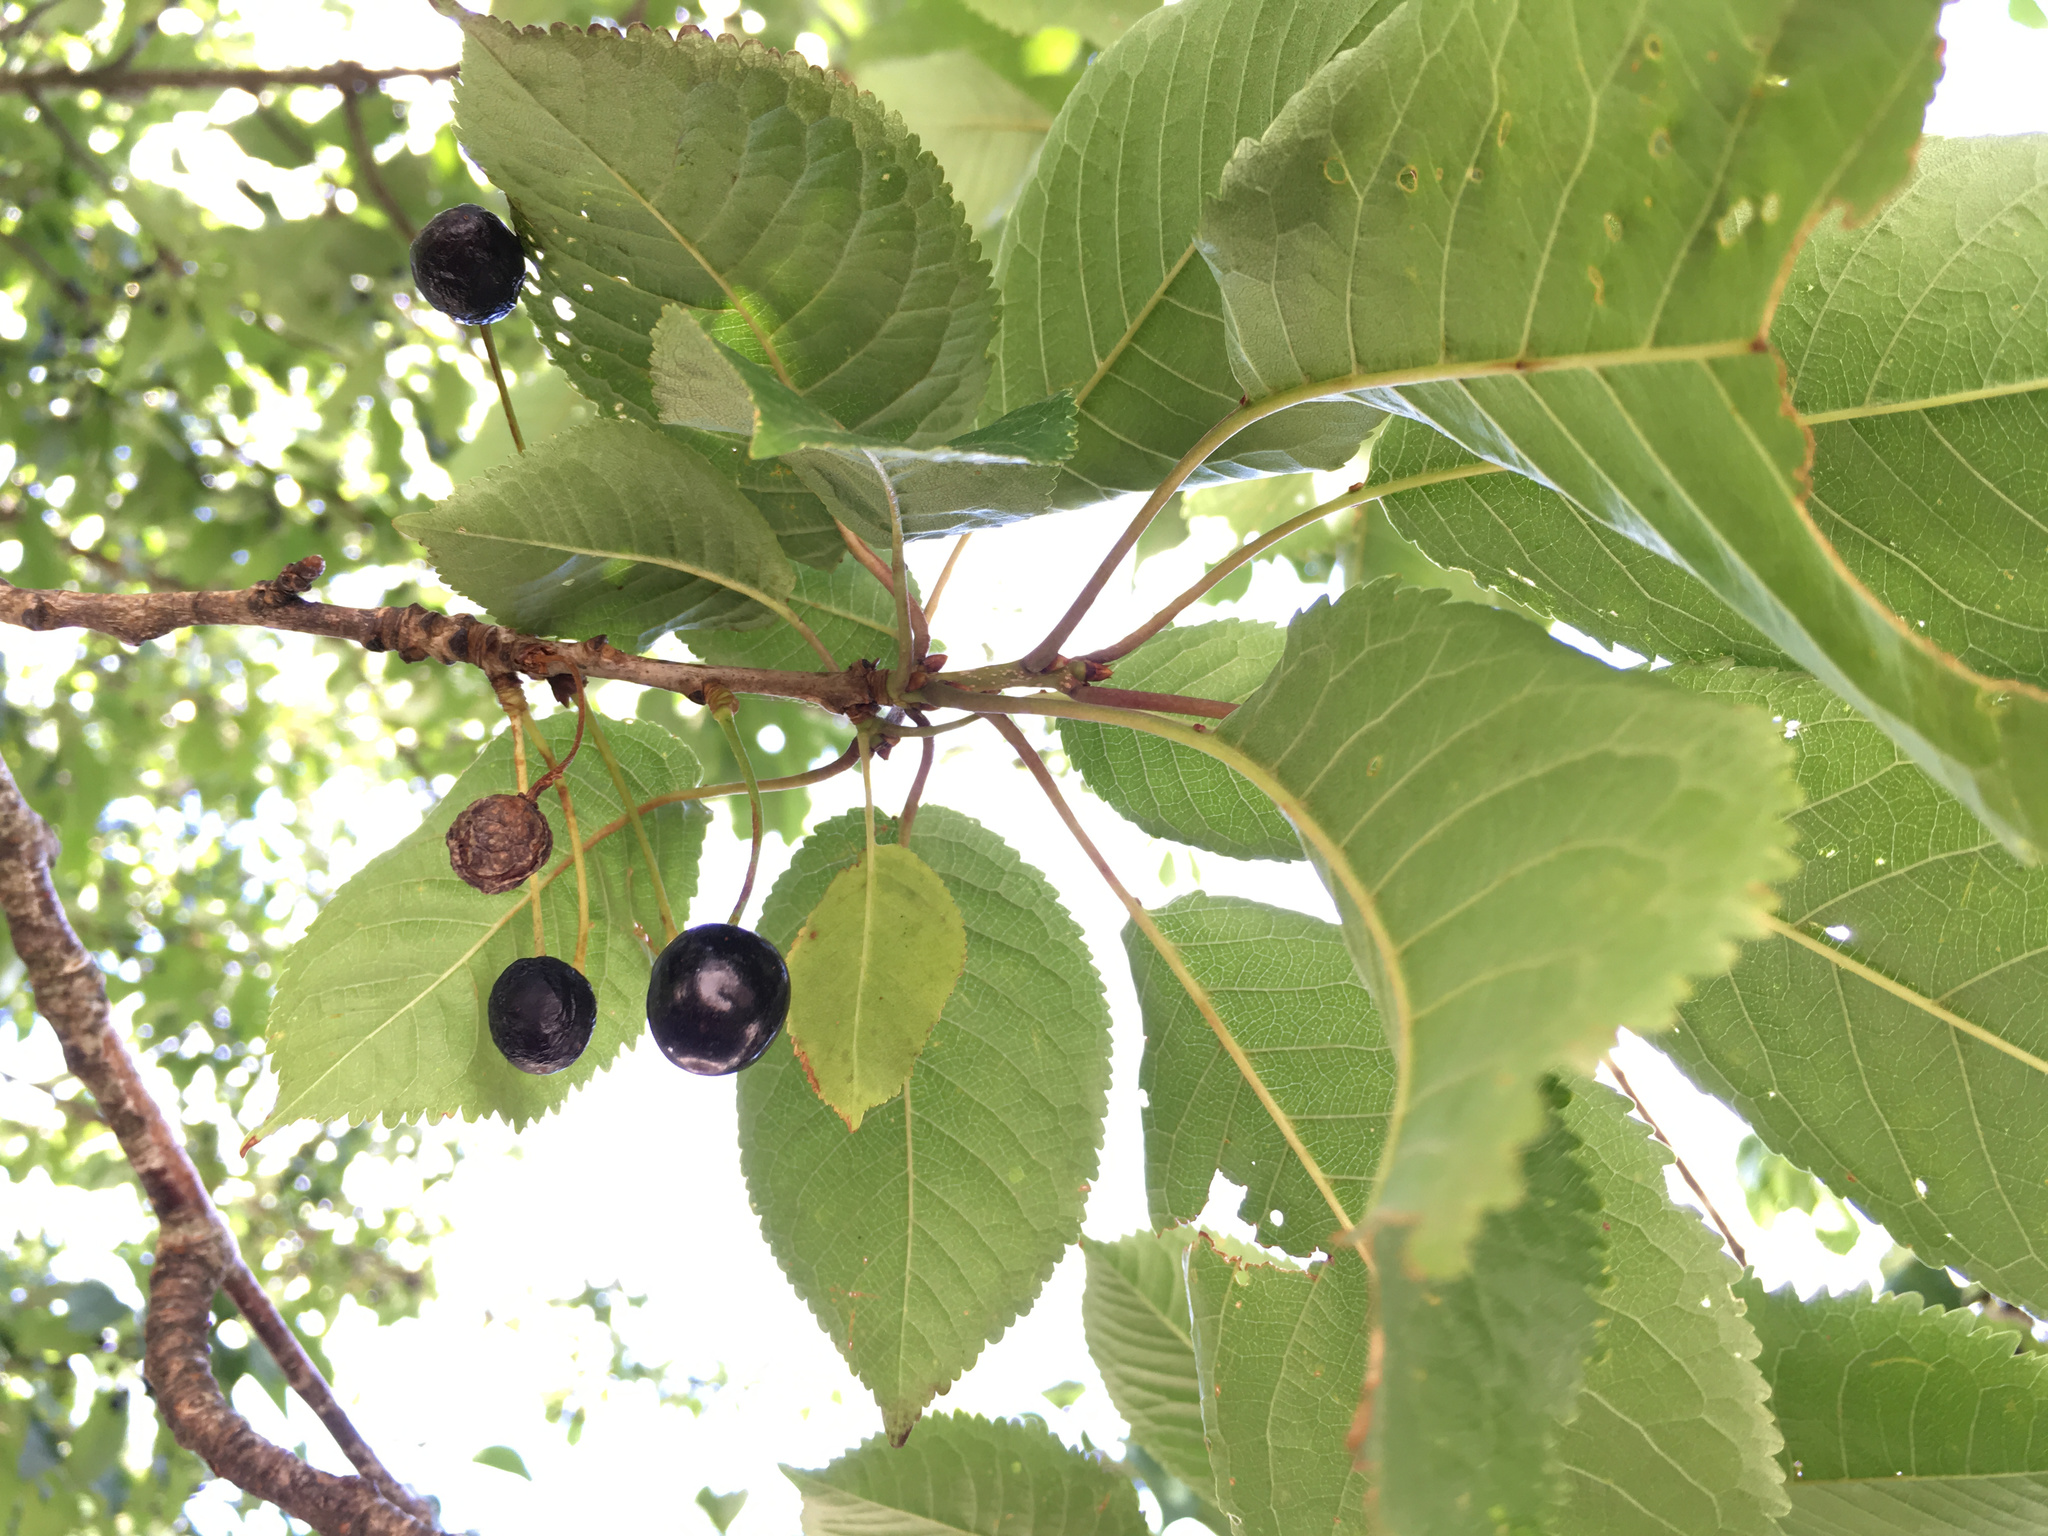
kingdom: Plantae
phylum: Tracheophyta
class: Magnoliopsida
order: Rosales
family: Rosaceae
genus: Prunus
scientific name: Prunus avium
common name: Sweet cherry
